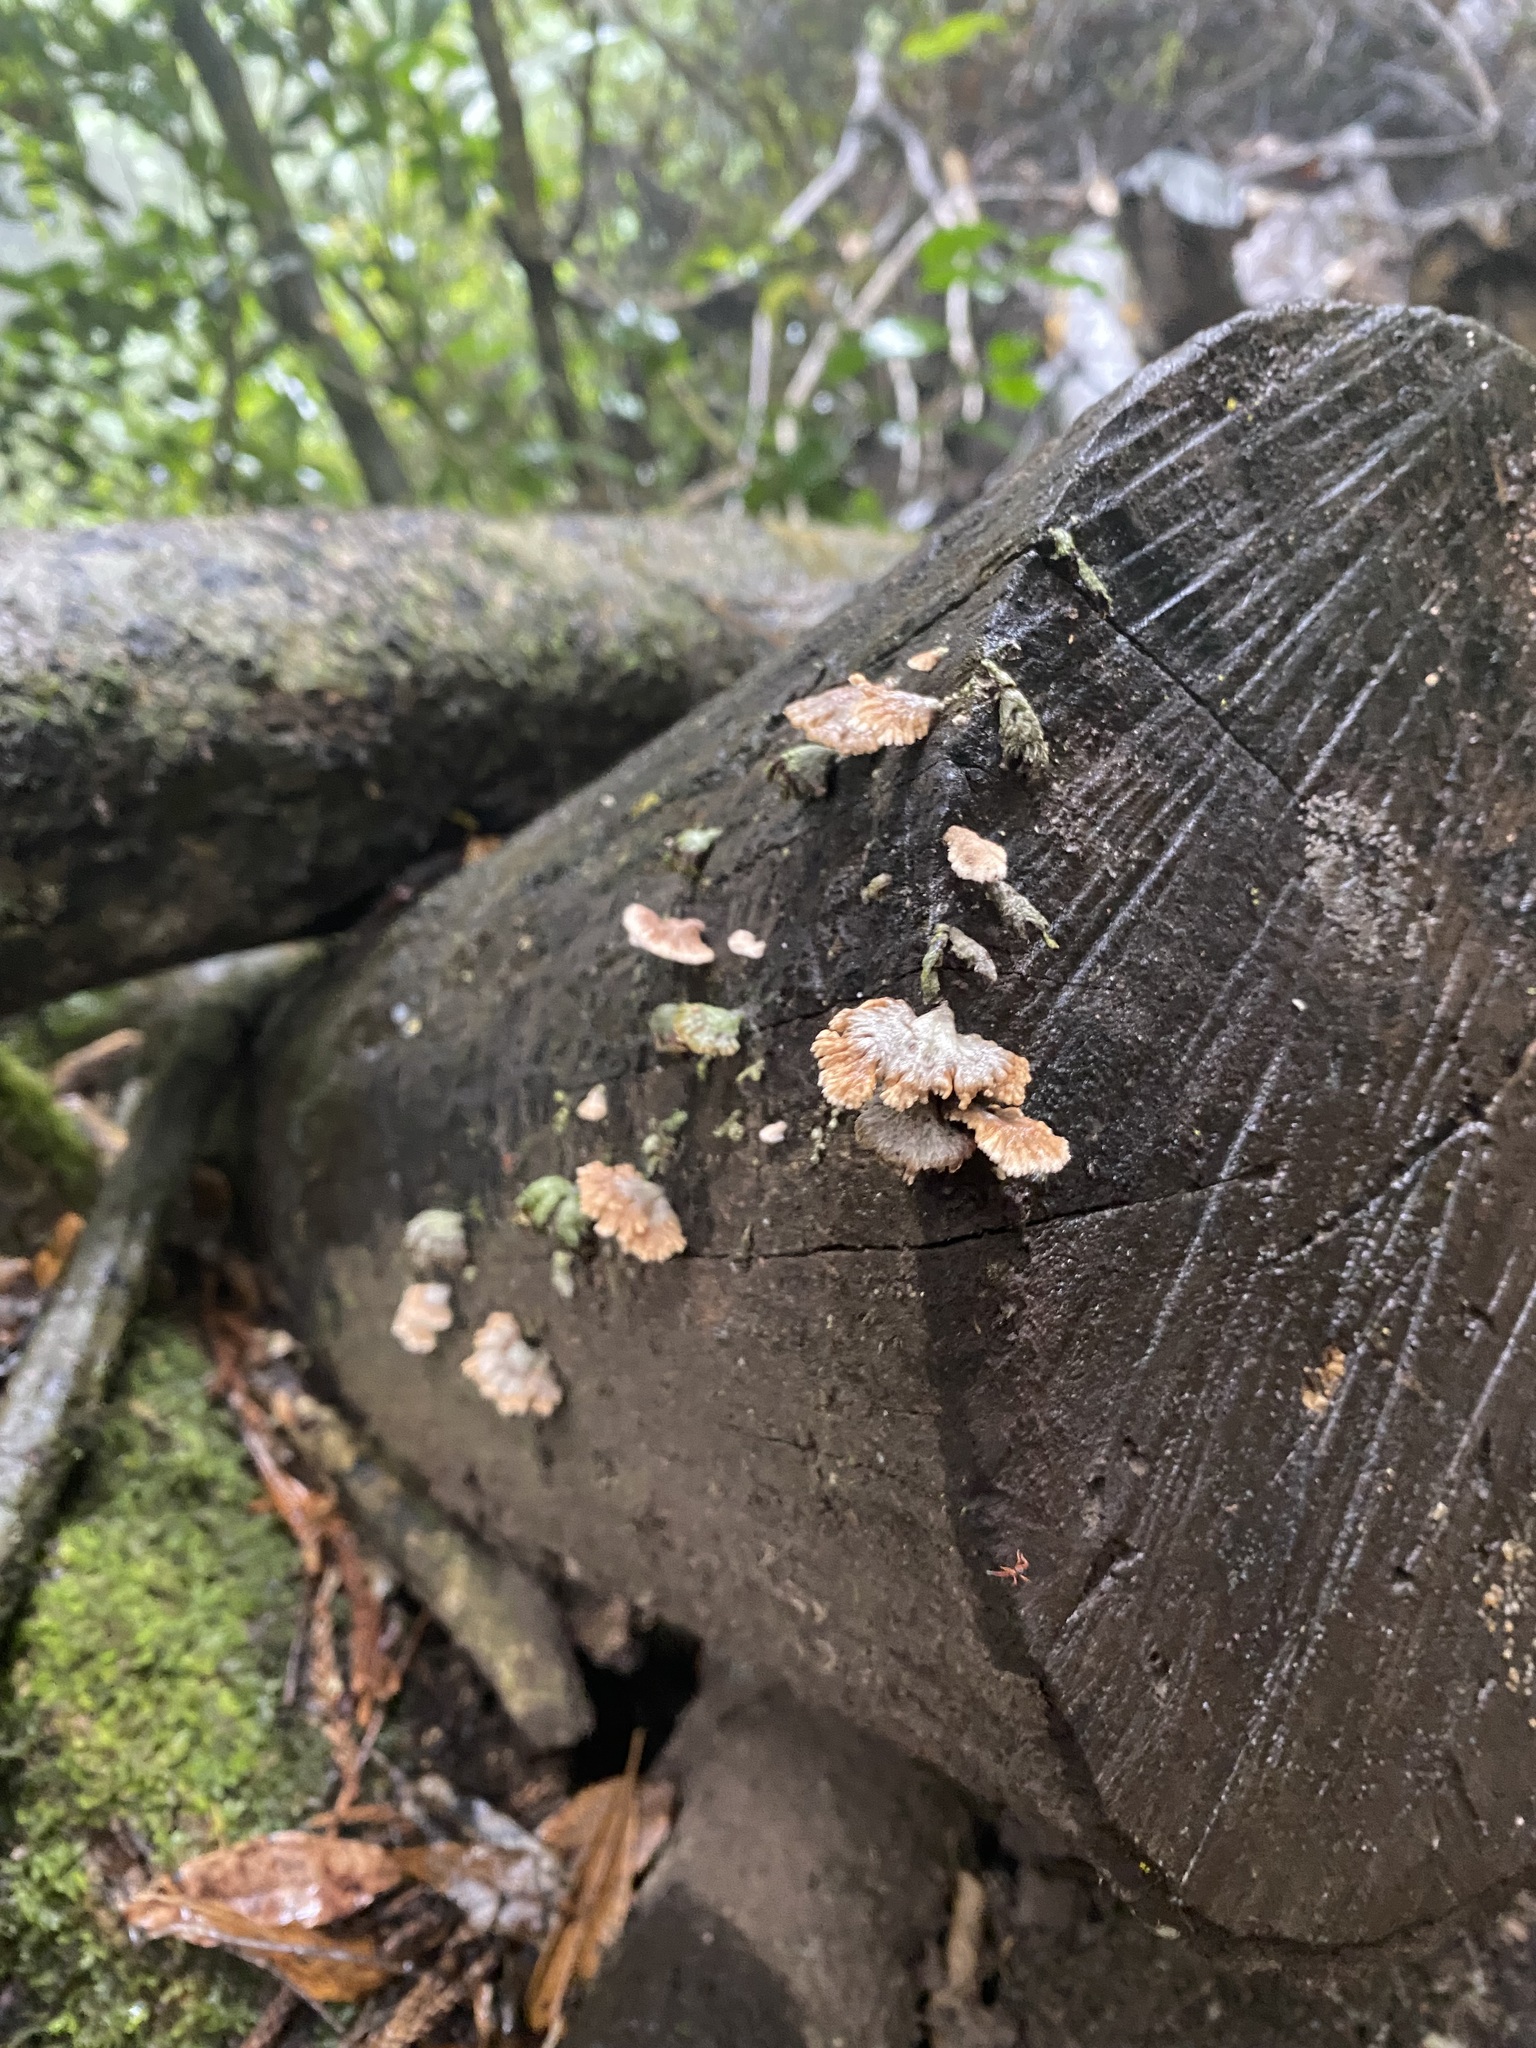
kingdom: Fungi
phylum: Basidiomycota
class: Agaricomycetes
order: Agaricales
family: Schizophyllaceae
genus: Schizophyllum
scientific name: Schizophyllum commune
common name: Common porecrust
